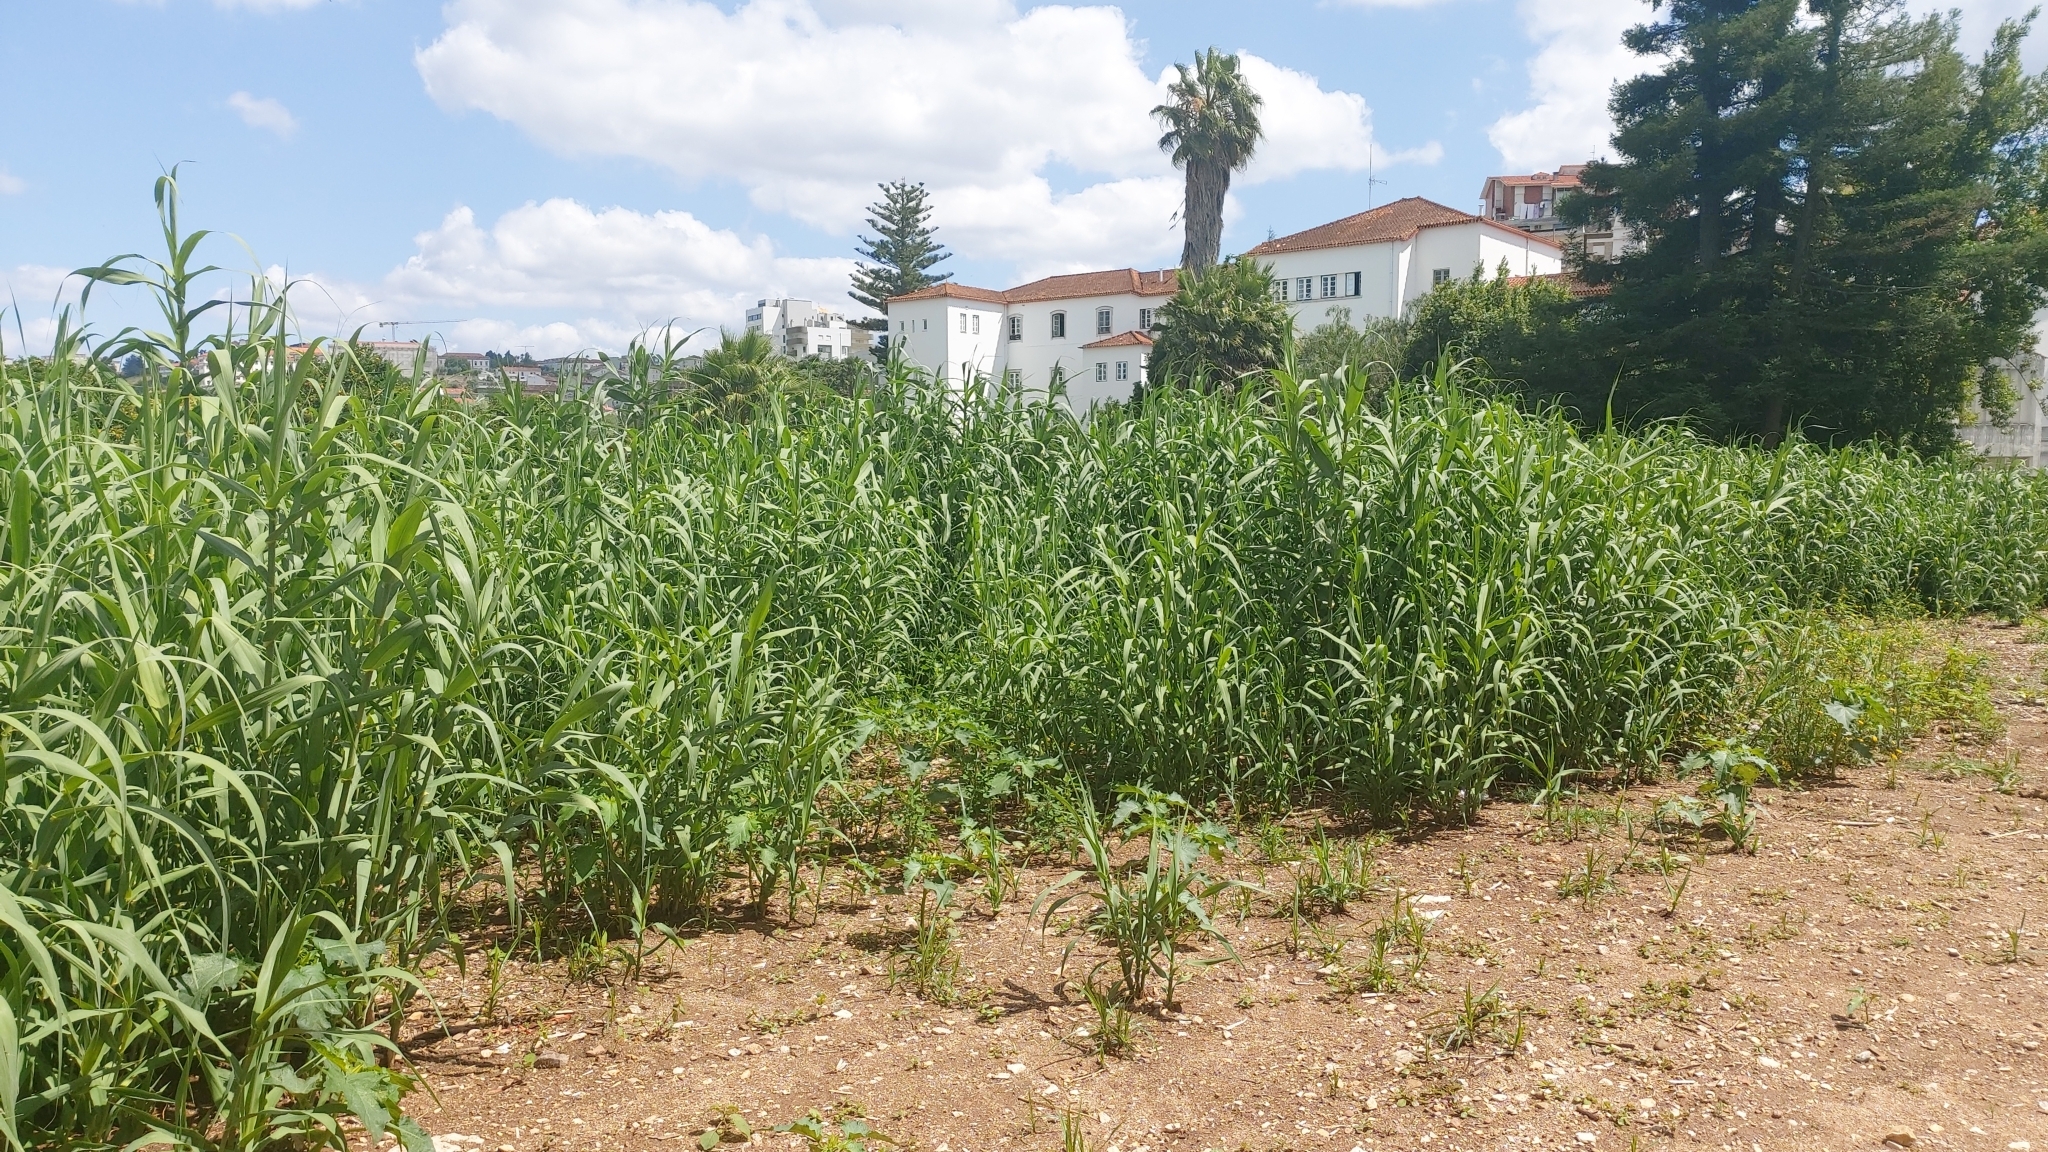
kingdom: Plantae
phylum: Tracheophyta
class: Liliopsida
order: Poales
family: Poaceae
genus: Arundo
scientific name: Arundo donax
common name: Giant reed
